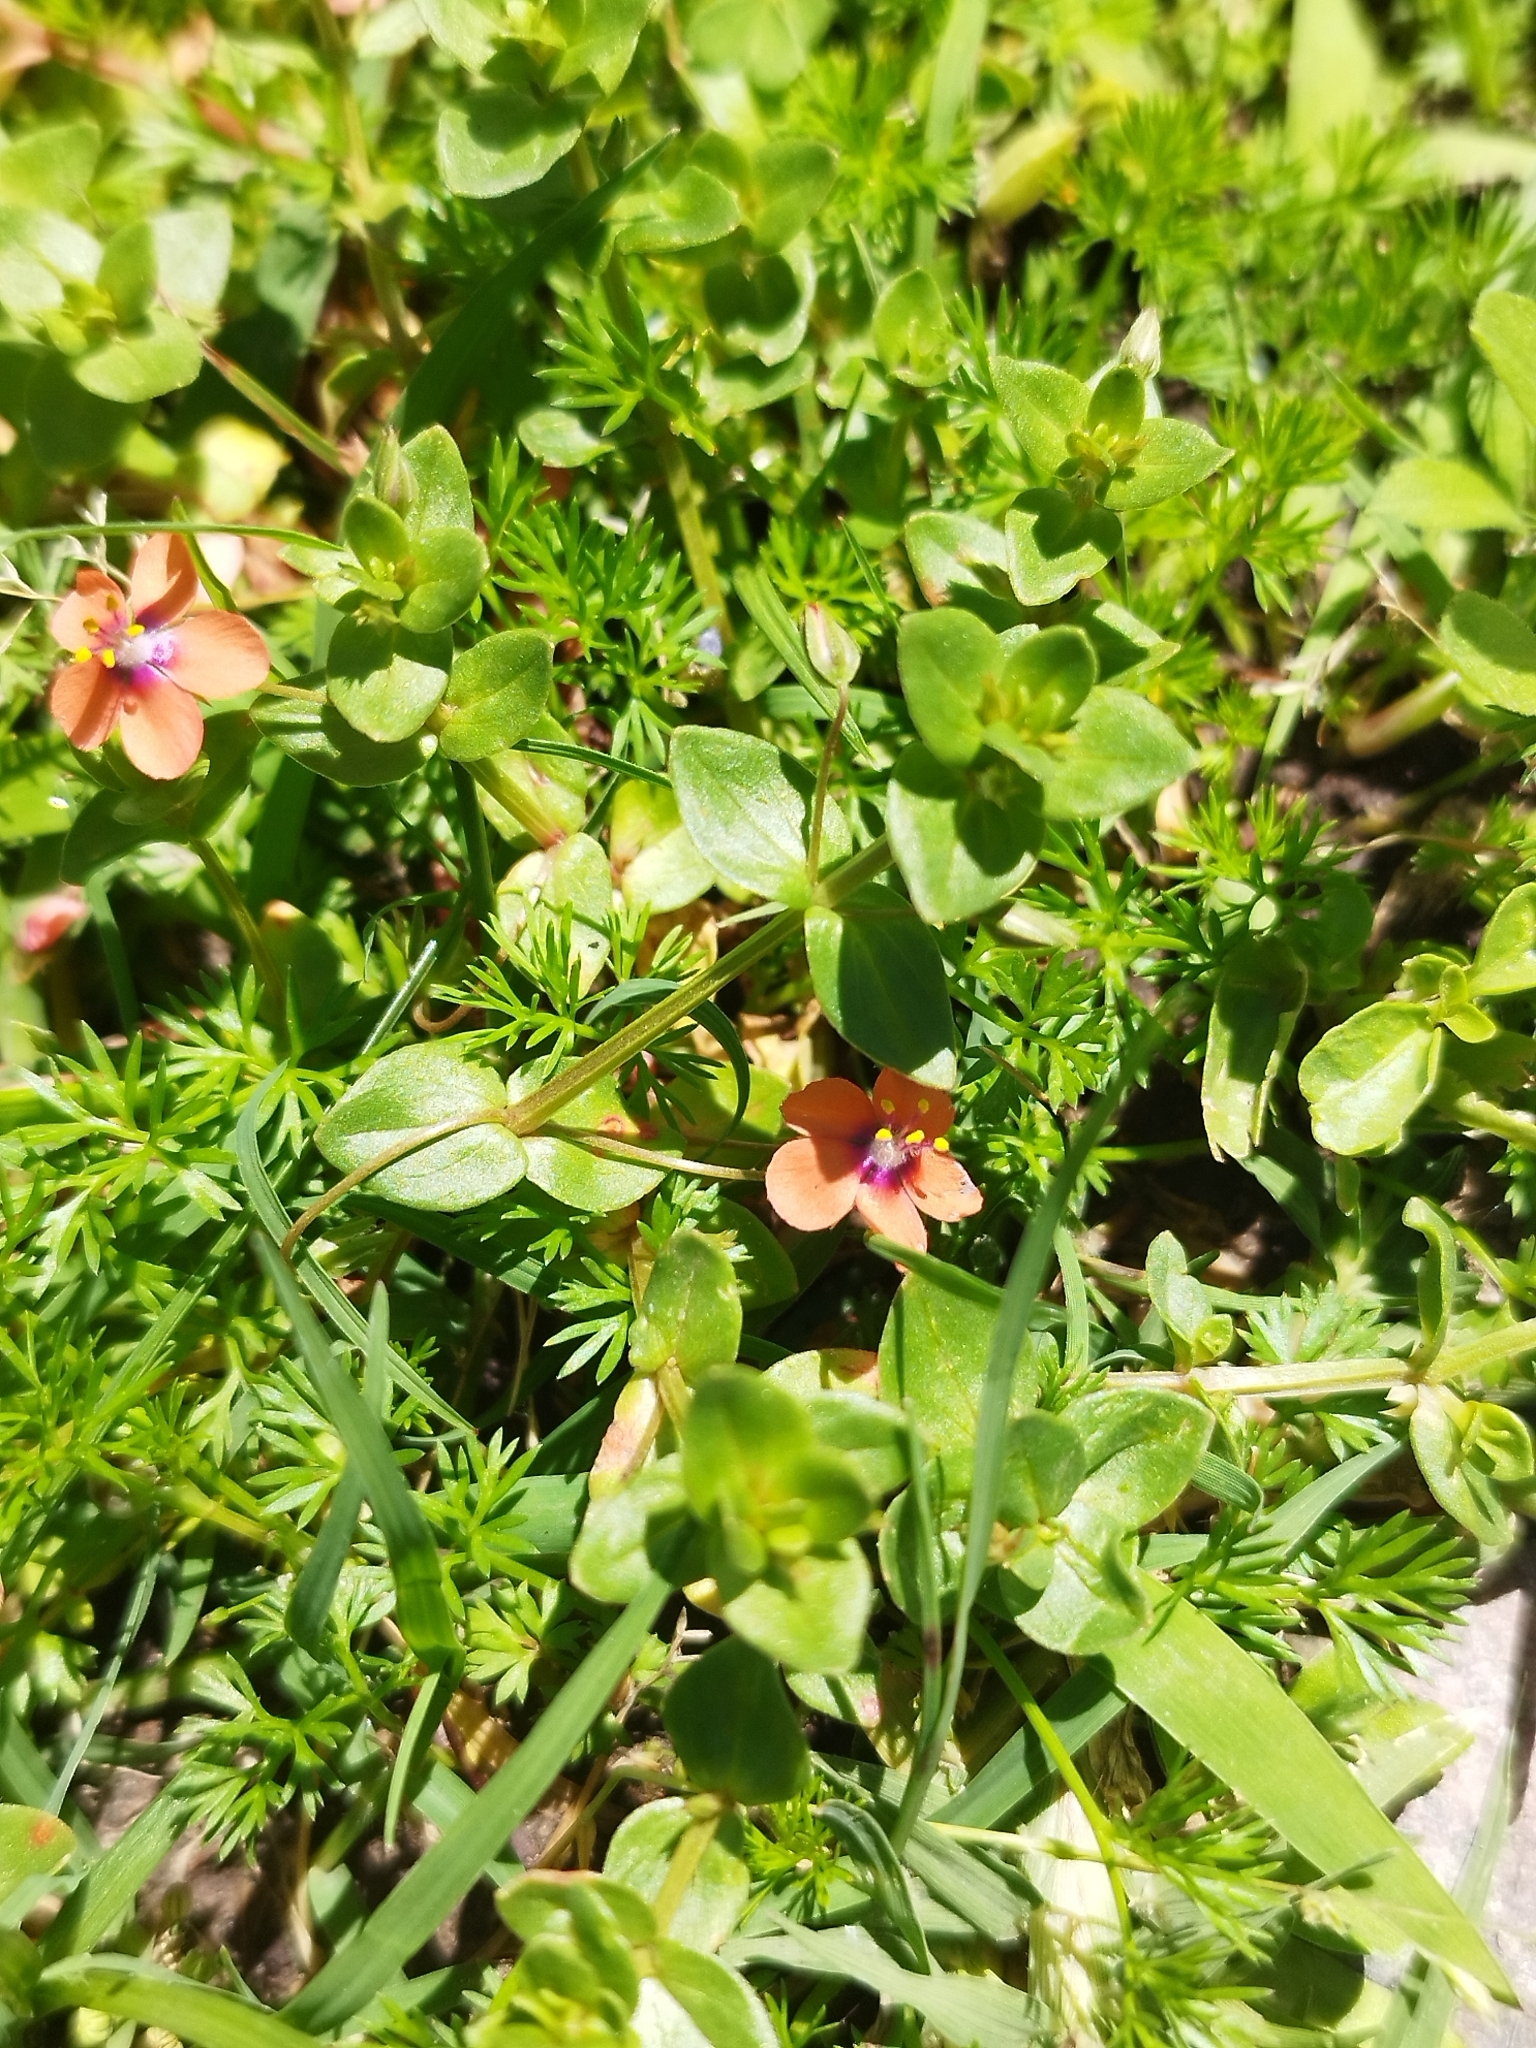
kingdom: Plantae
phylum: Tracheophyta
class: Magnoliopsida
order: Ericales
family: Primulaceae
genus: Lysimachia
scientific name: Lysimachia arvensis
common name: Scarlet pimpernel
